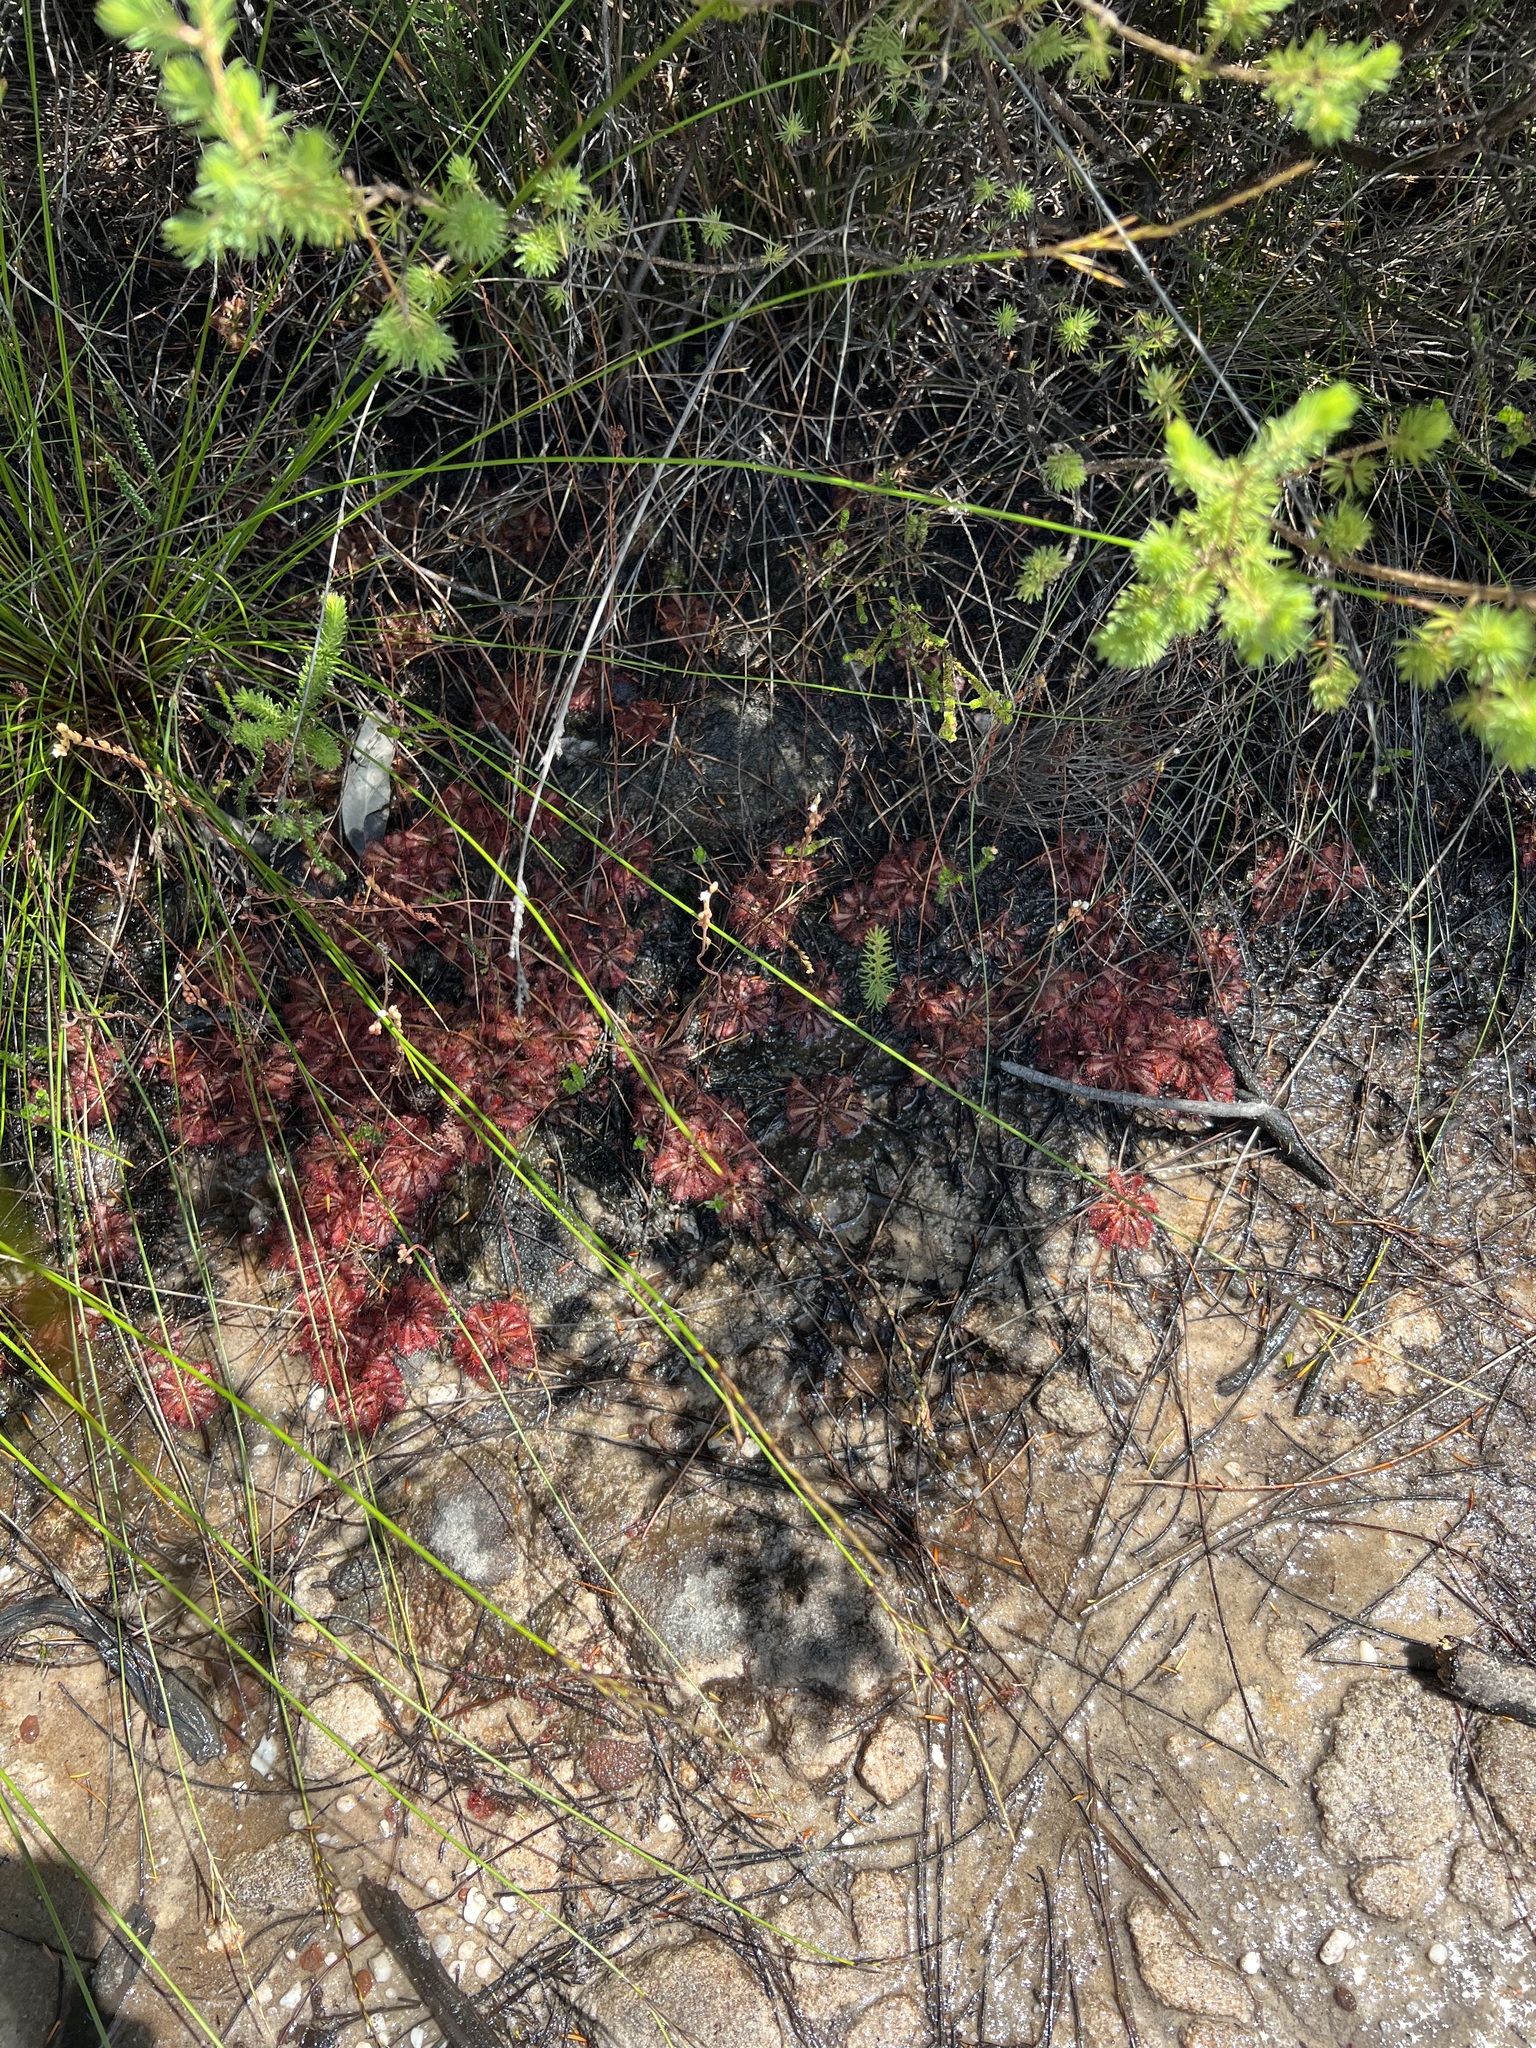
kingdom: Plantae
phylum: Tracheophyta
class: Magnoliopsida
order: Caryophyllales
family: Droseraceae
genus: Drosera
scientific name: Drosera spatulata
